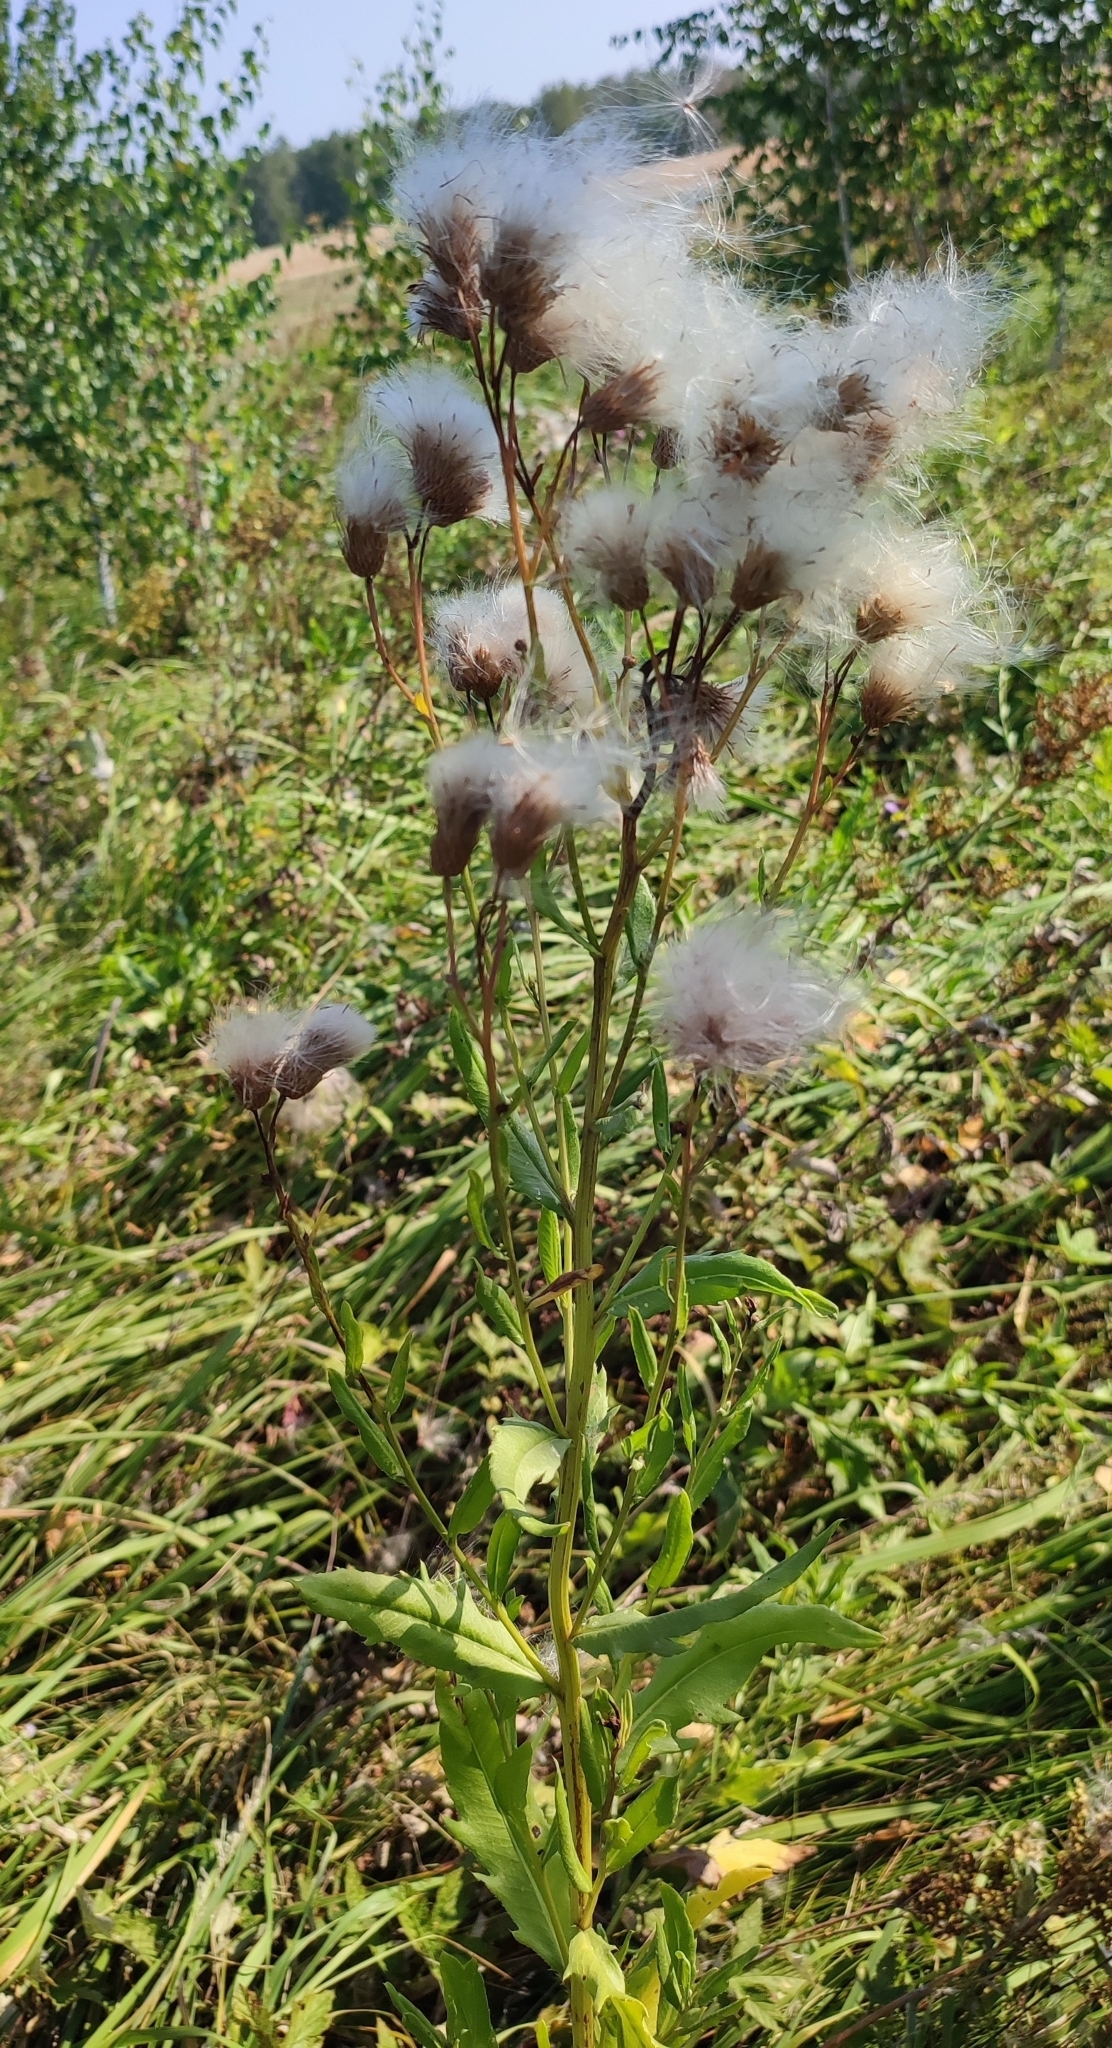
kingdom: Plantae
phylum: Tracheophyta
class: Magnoliopsida
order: Asterales
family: Asteraceae
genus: Cirsium
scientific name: Cirsium arvense
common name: Creeping thistle
